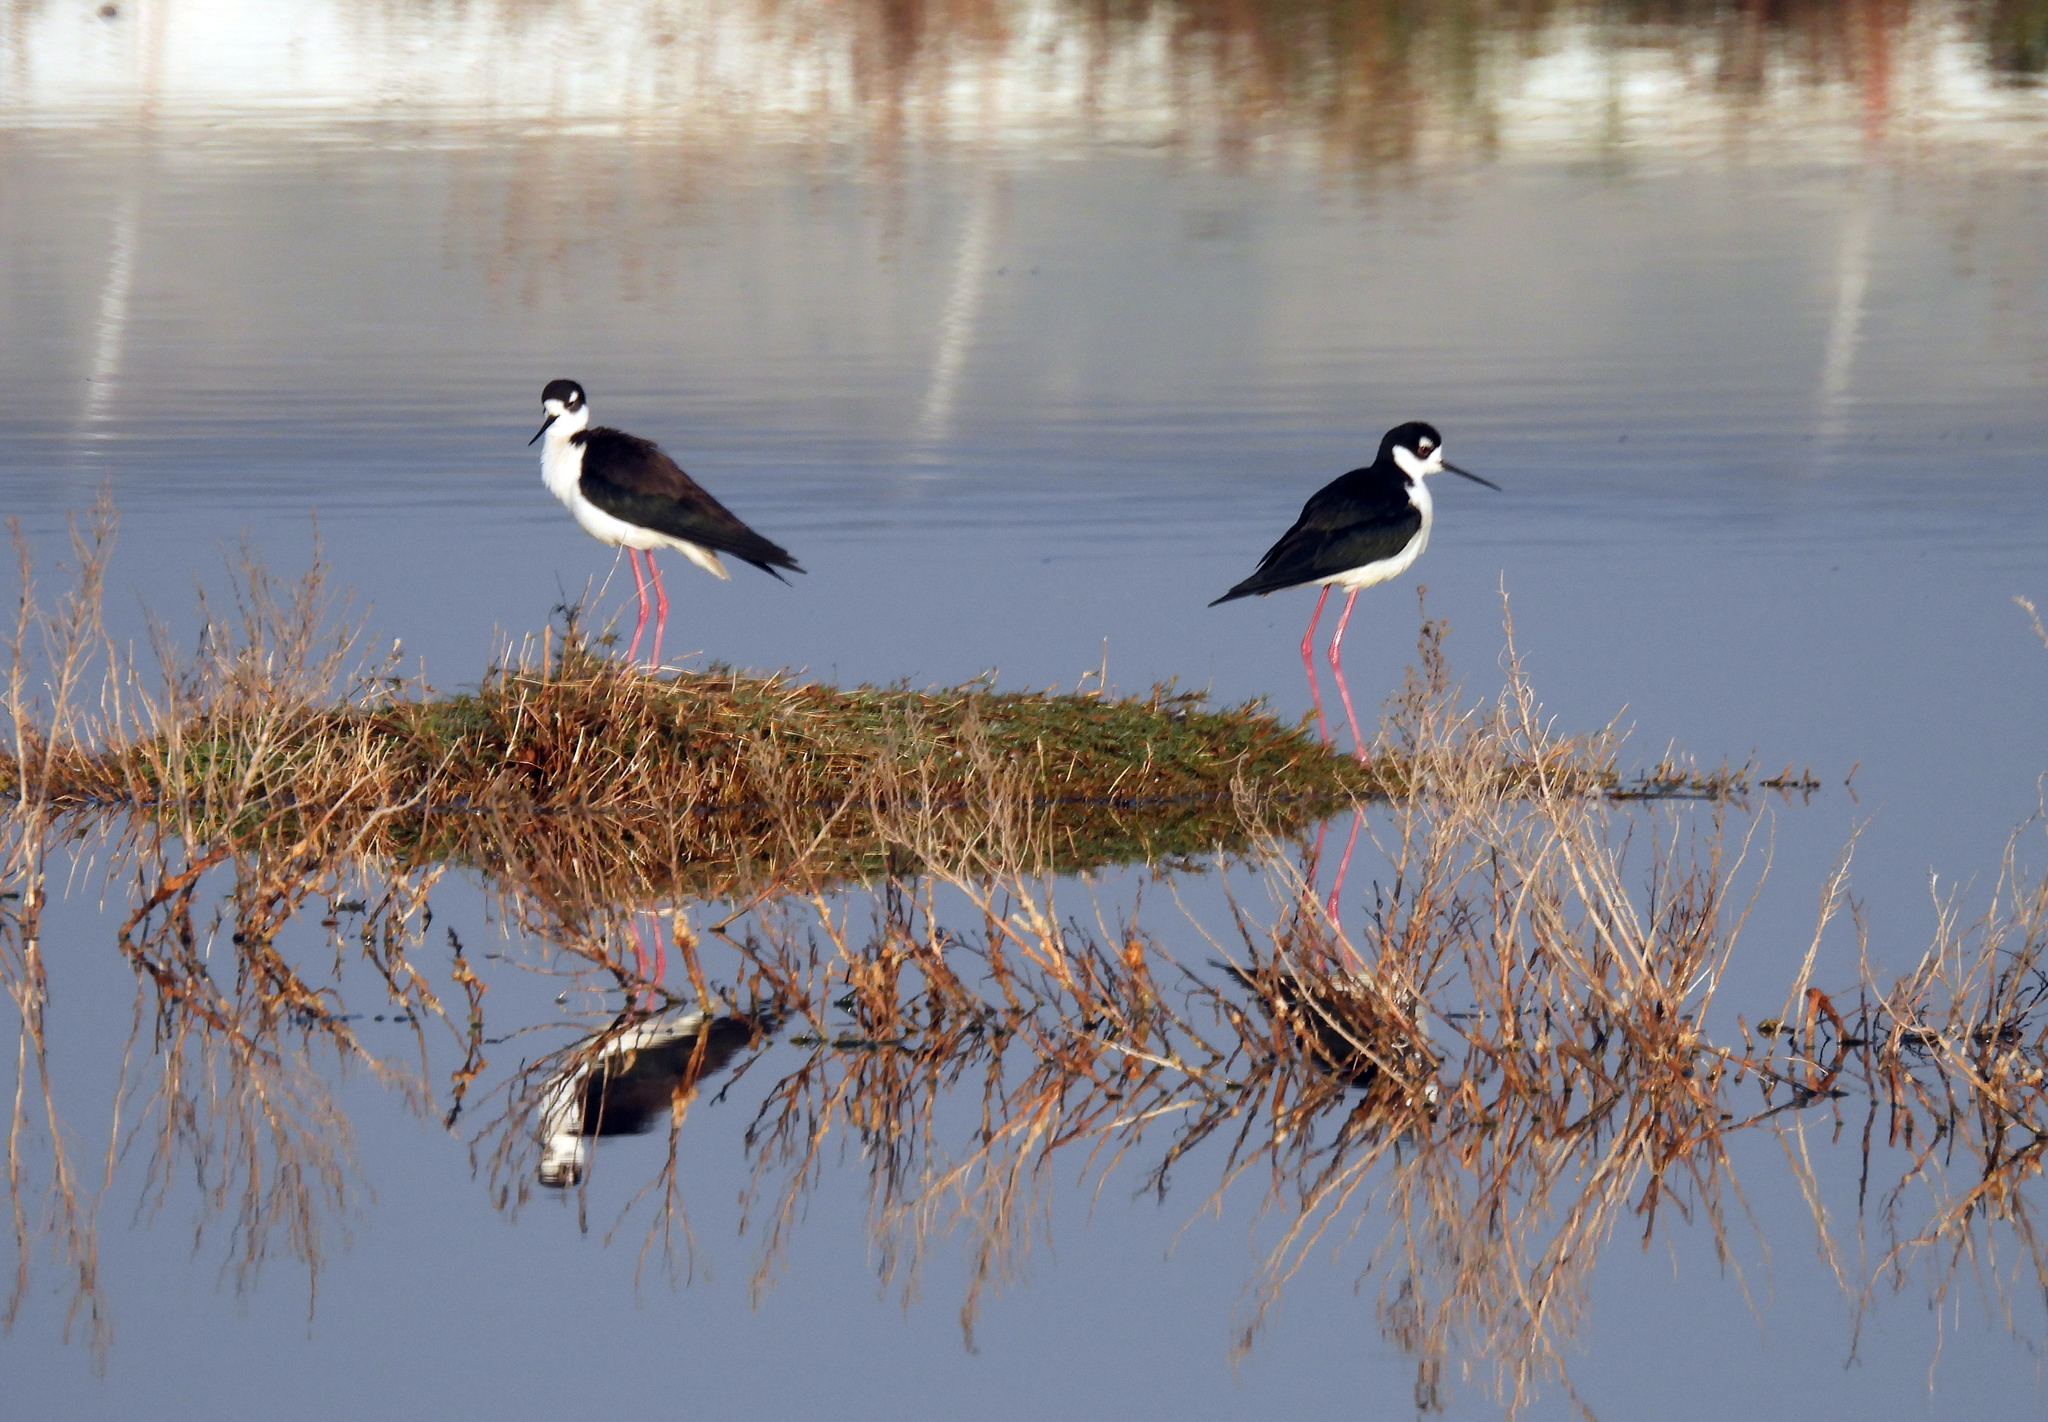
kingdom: Animalia
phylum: Chordata
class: Aves
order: Charadriiformes
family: Recurvirostridae
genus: Himantopus
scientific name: Himantopus mexicanus
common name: Black-necked stilt
